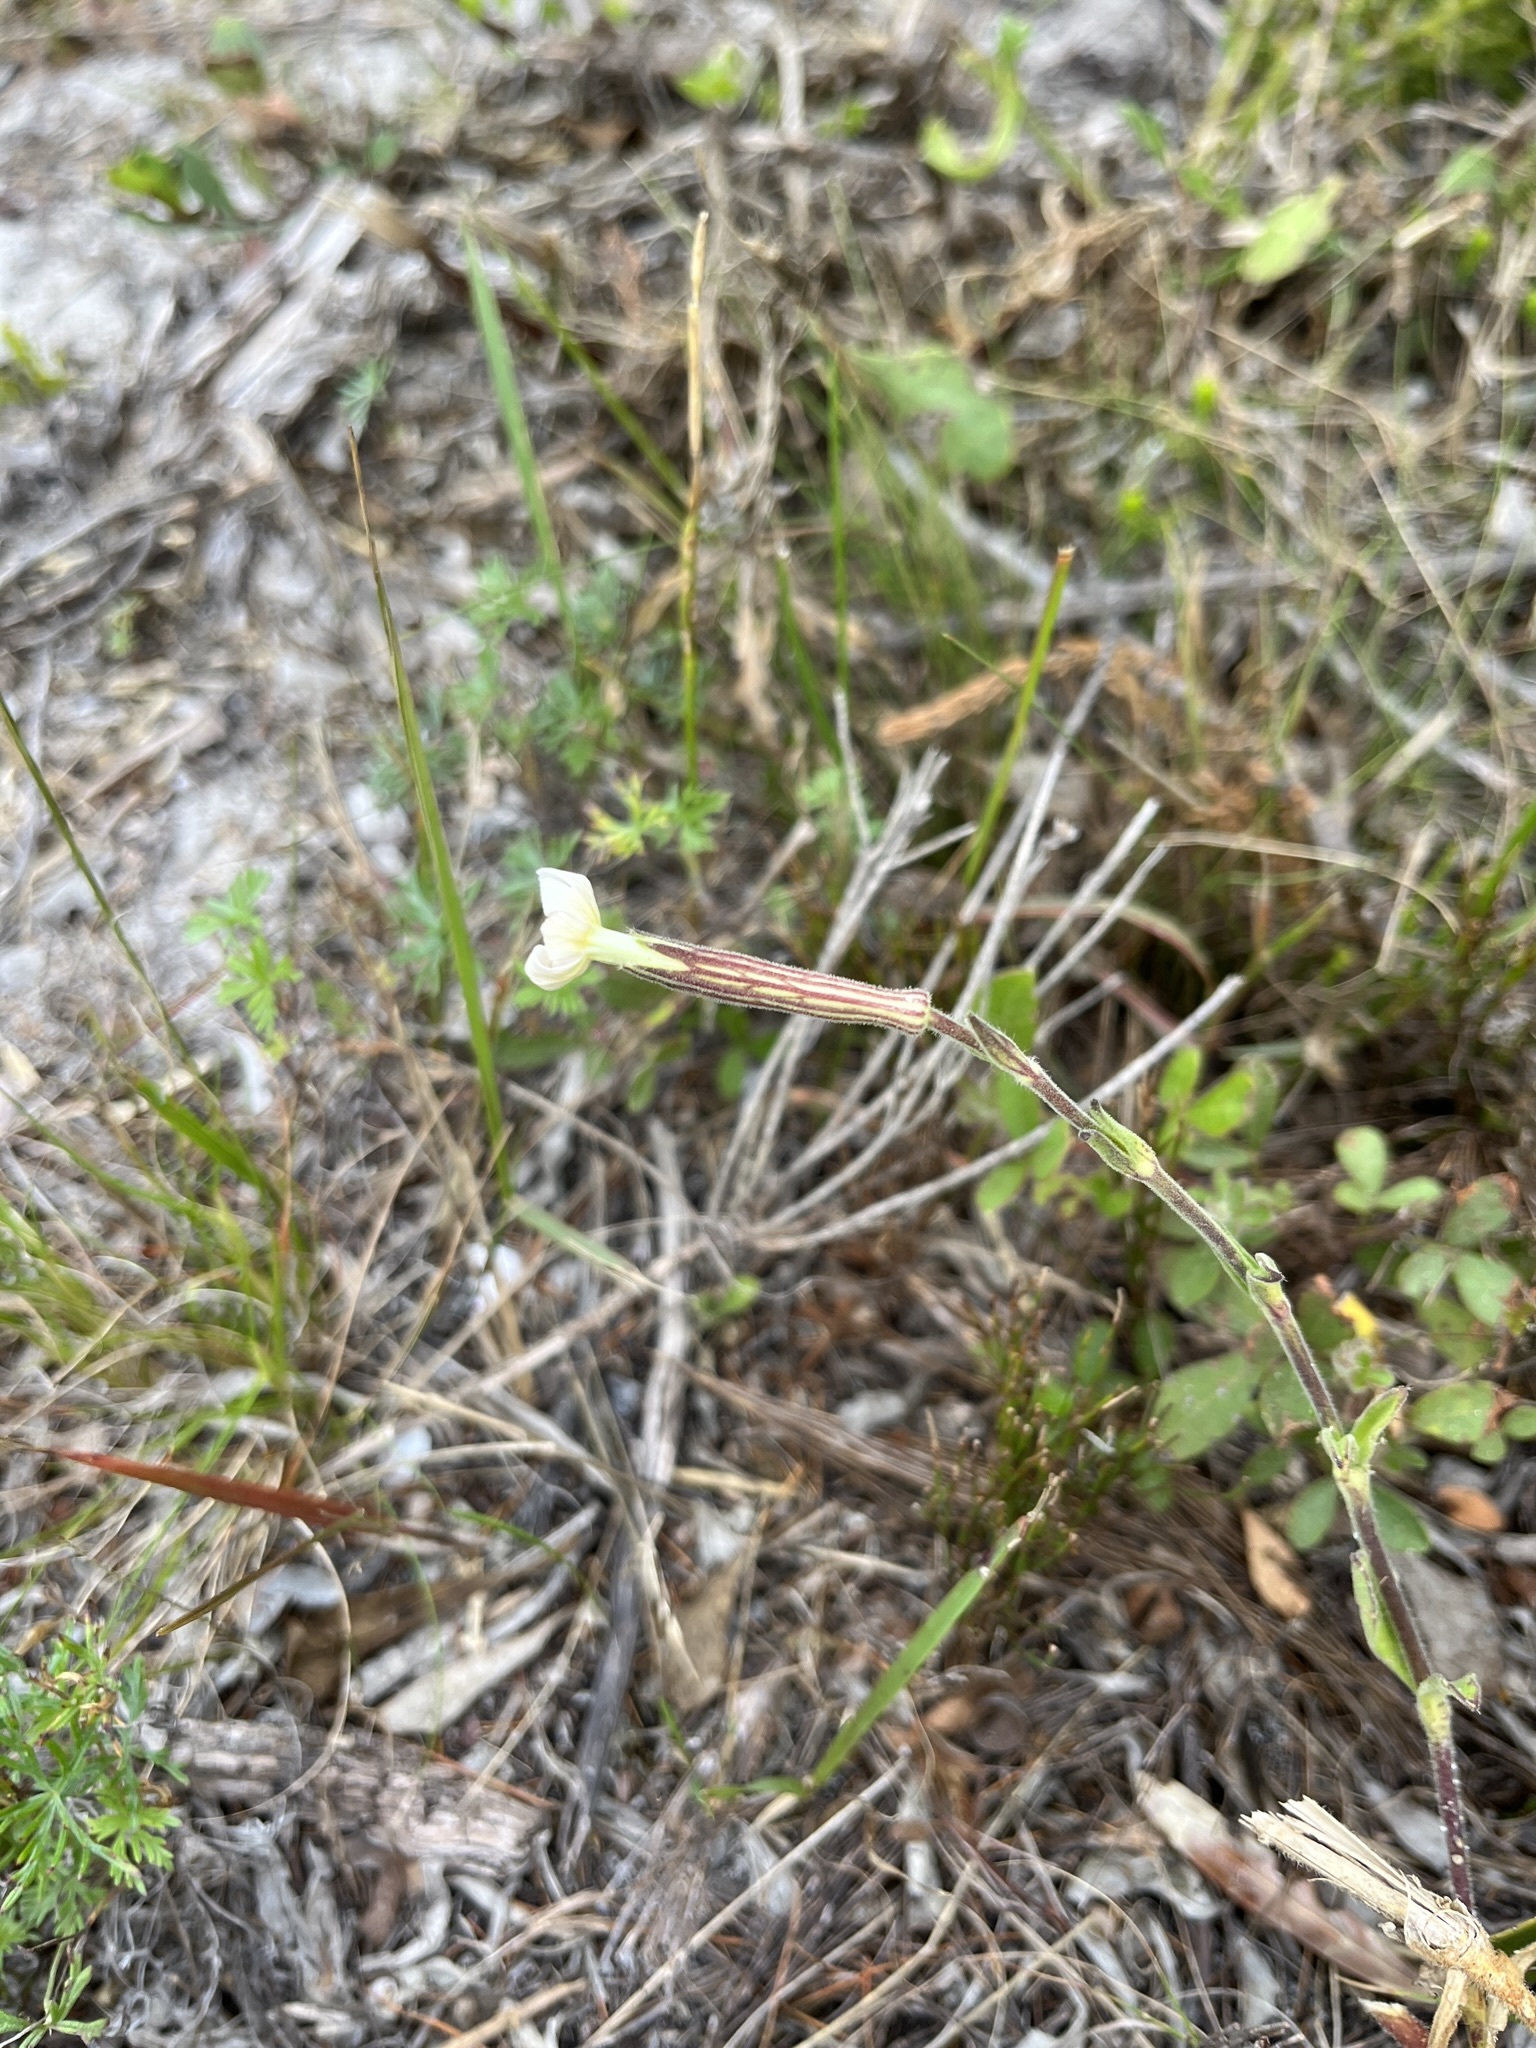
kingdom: Plantae
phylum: Tracheophyta
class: Magnoliopsida
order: Caryophyllales
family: Caryophyllaceae
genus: Silene
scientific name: Silene undulata
